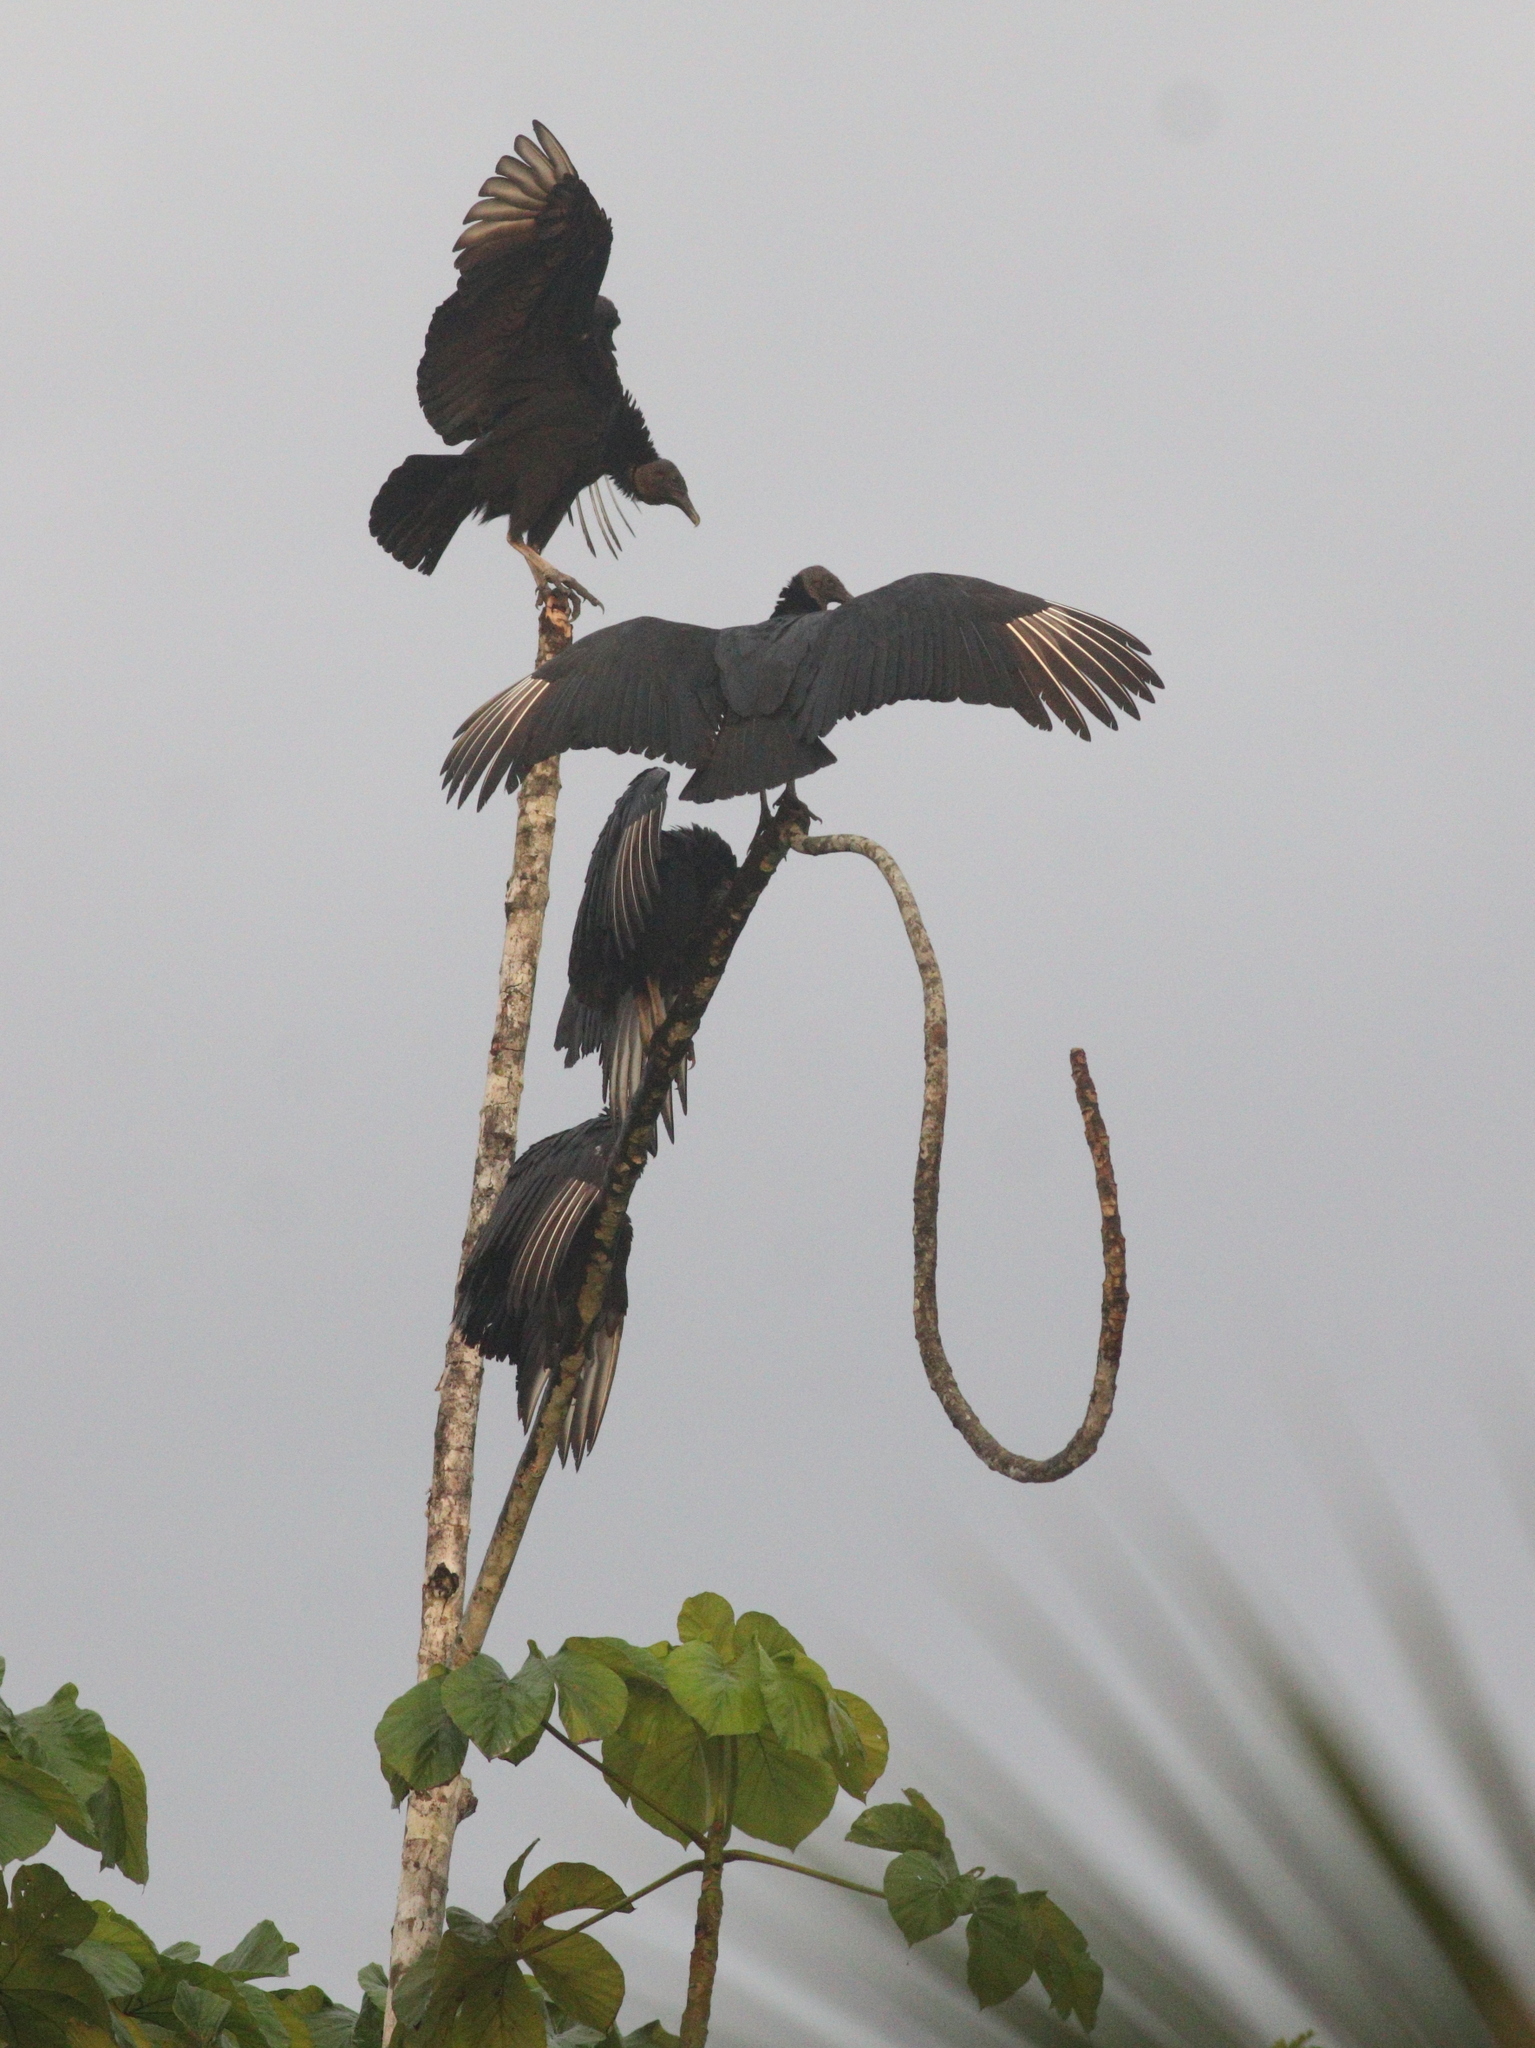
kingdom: Animalia
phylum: Chordata
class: Aves
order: Accipitriformes
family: Cathartidae
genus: Coragyps
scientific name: Coragyps atratus
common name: Black vulture
